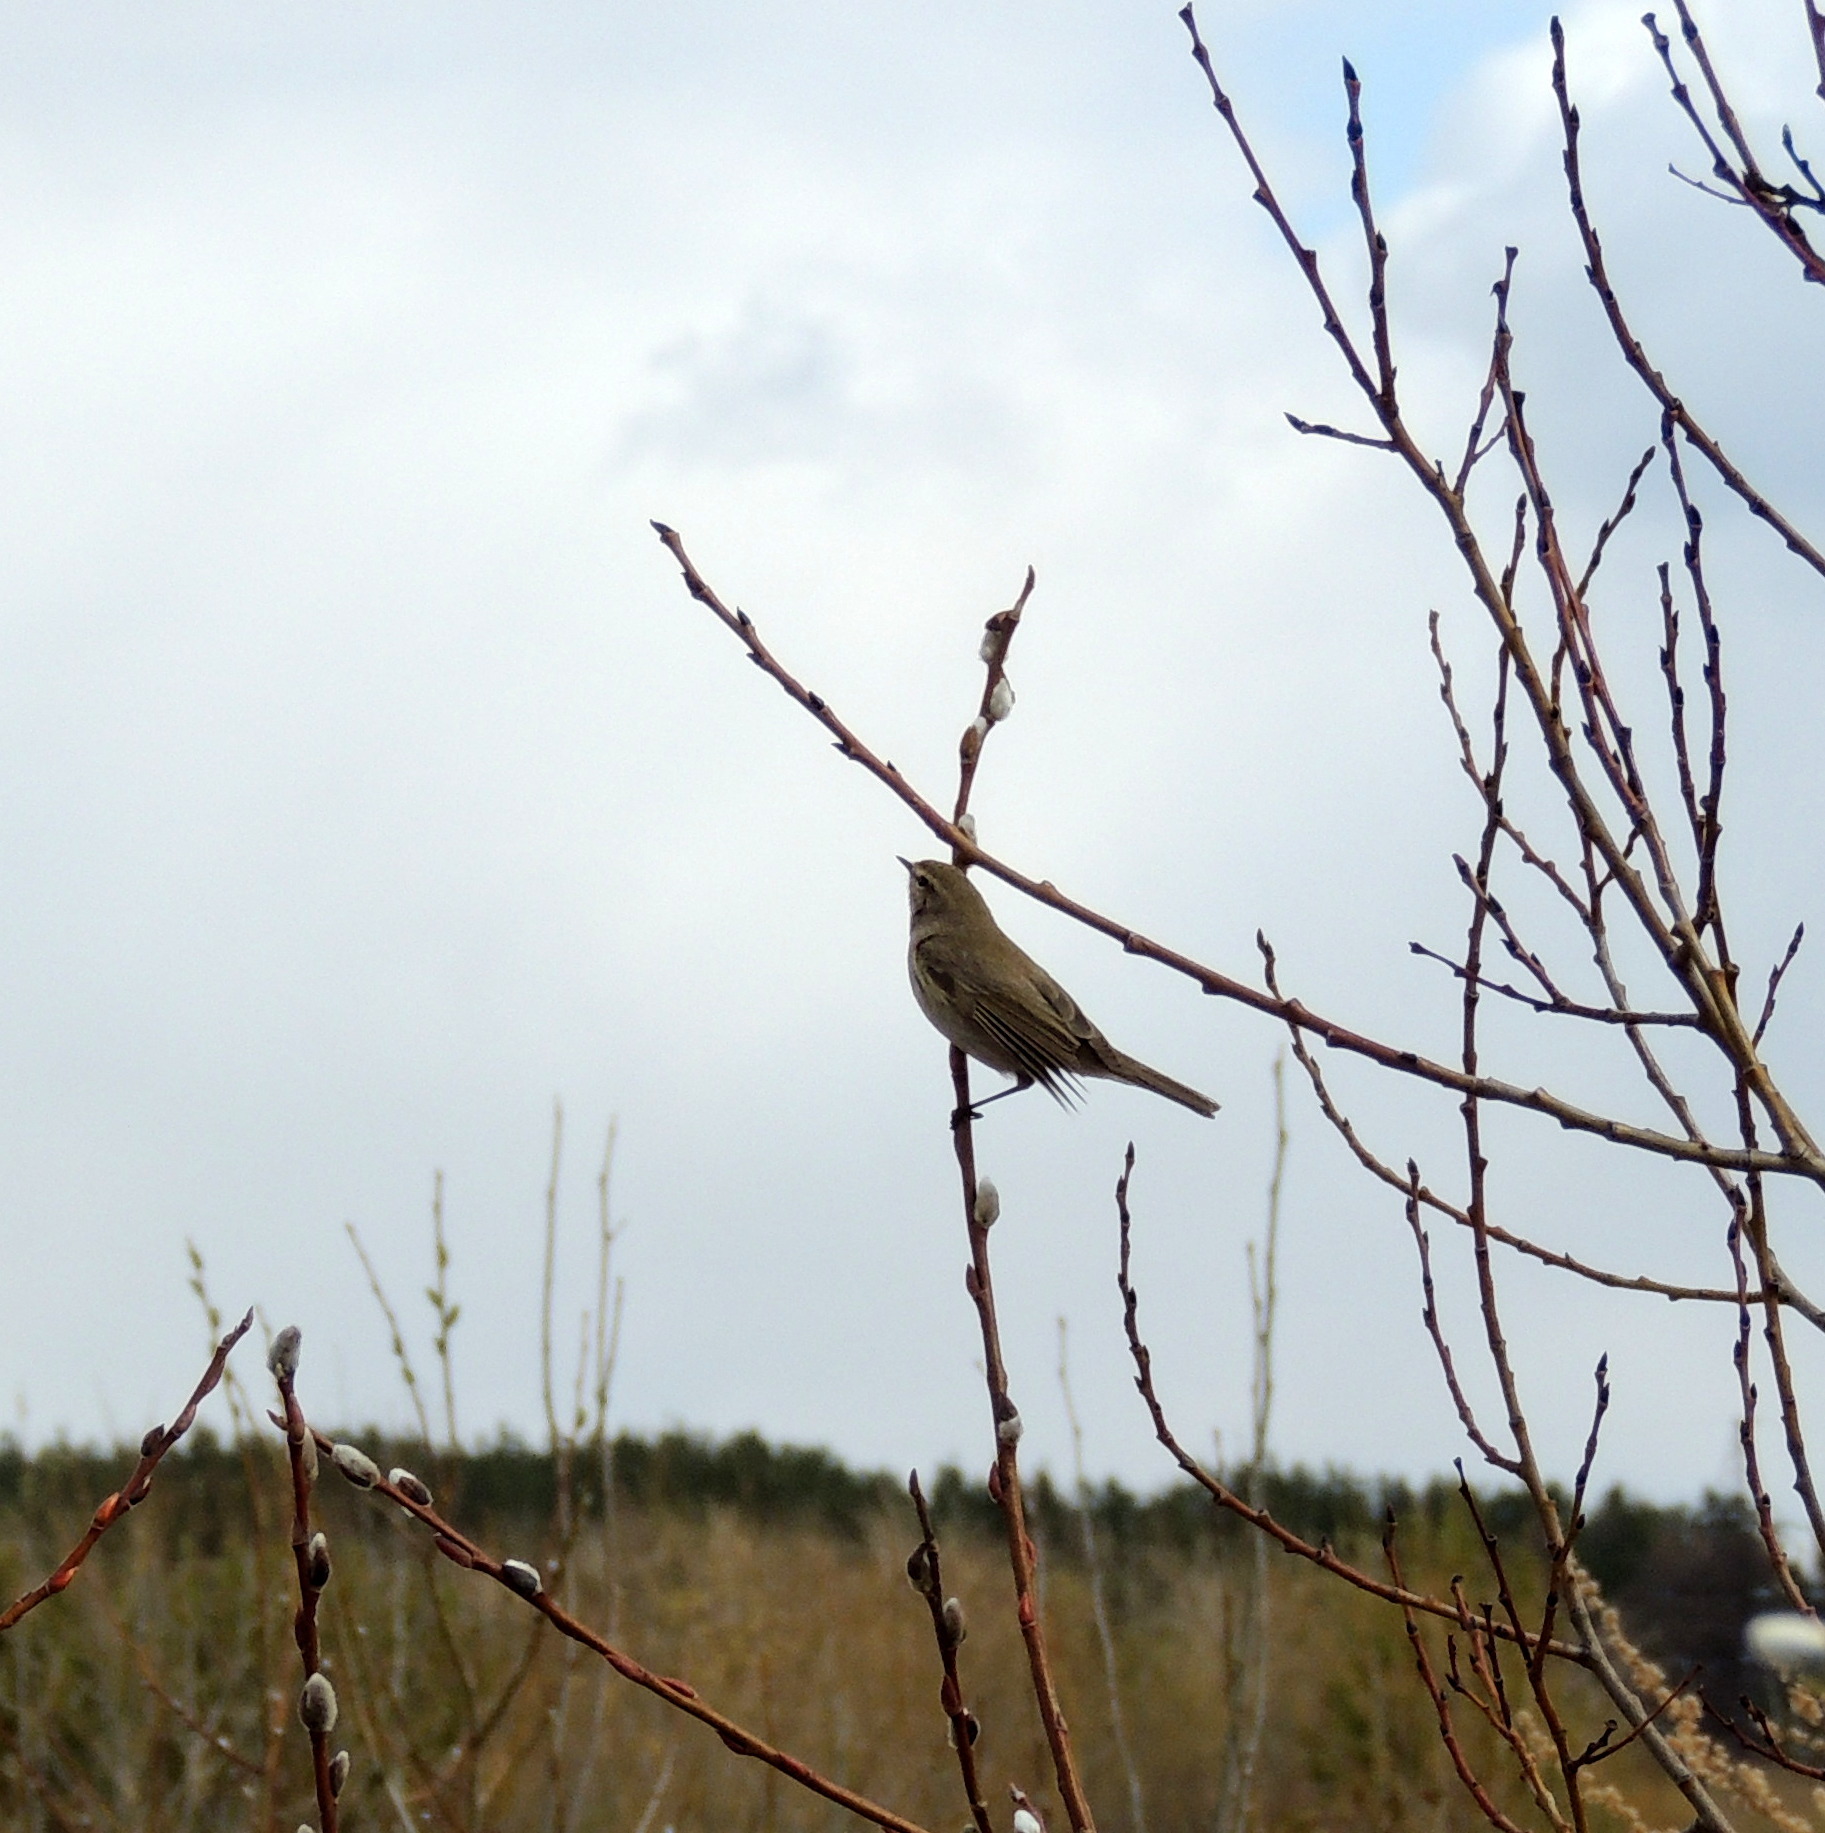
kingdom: Animalia
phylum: Chordata
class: Aves
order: Passeriformes
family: Phylloscopidae
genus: Phylloscopus
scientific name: Phylloscopus collybita
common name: Common chiffchaff
